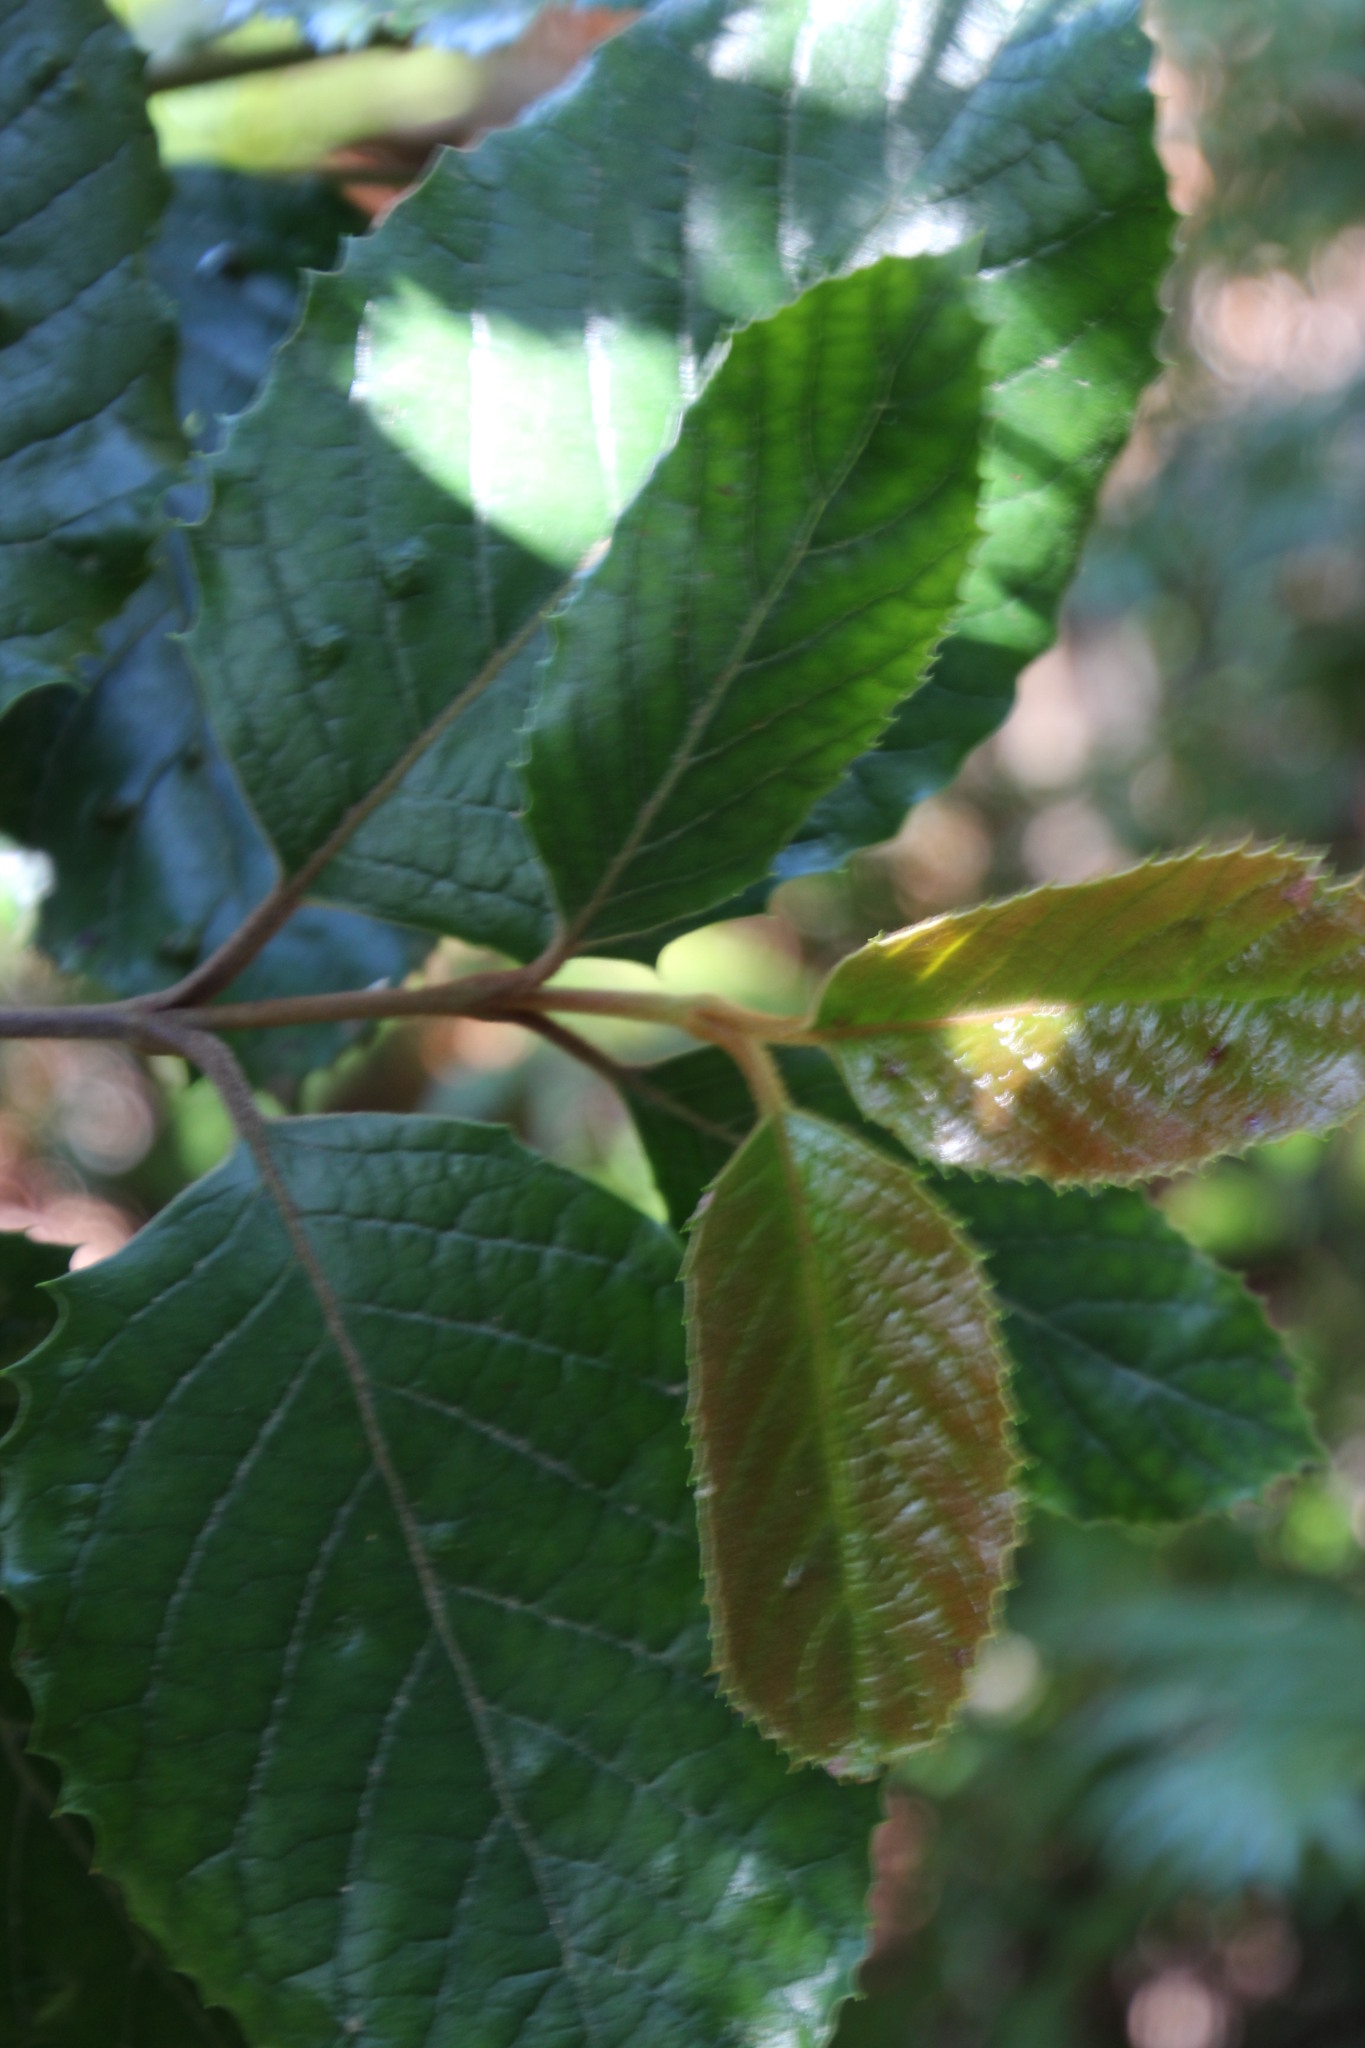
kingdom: Plantae
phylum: Tracheophyta
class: Magnoliopsida
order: Cornales
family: Curtisiaceae
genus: Curtisia
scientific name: Curtisia dentata
